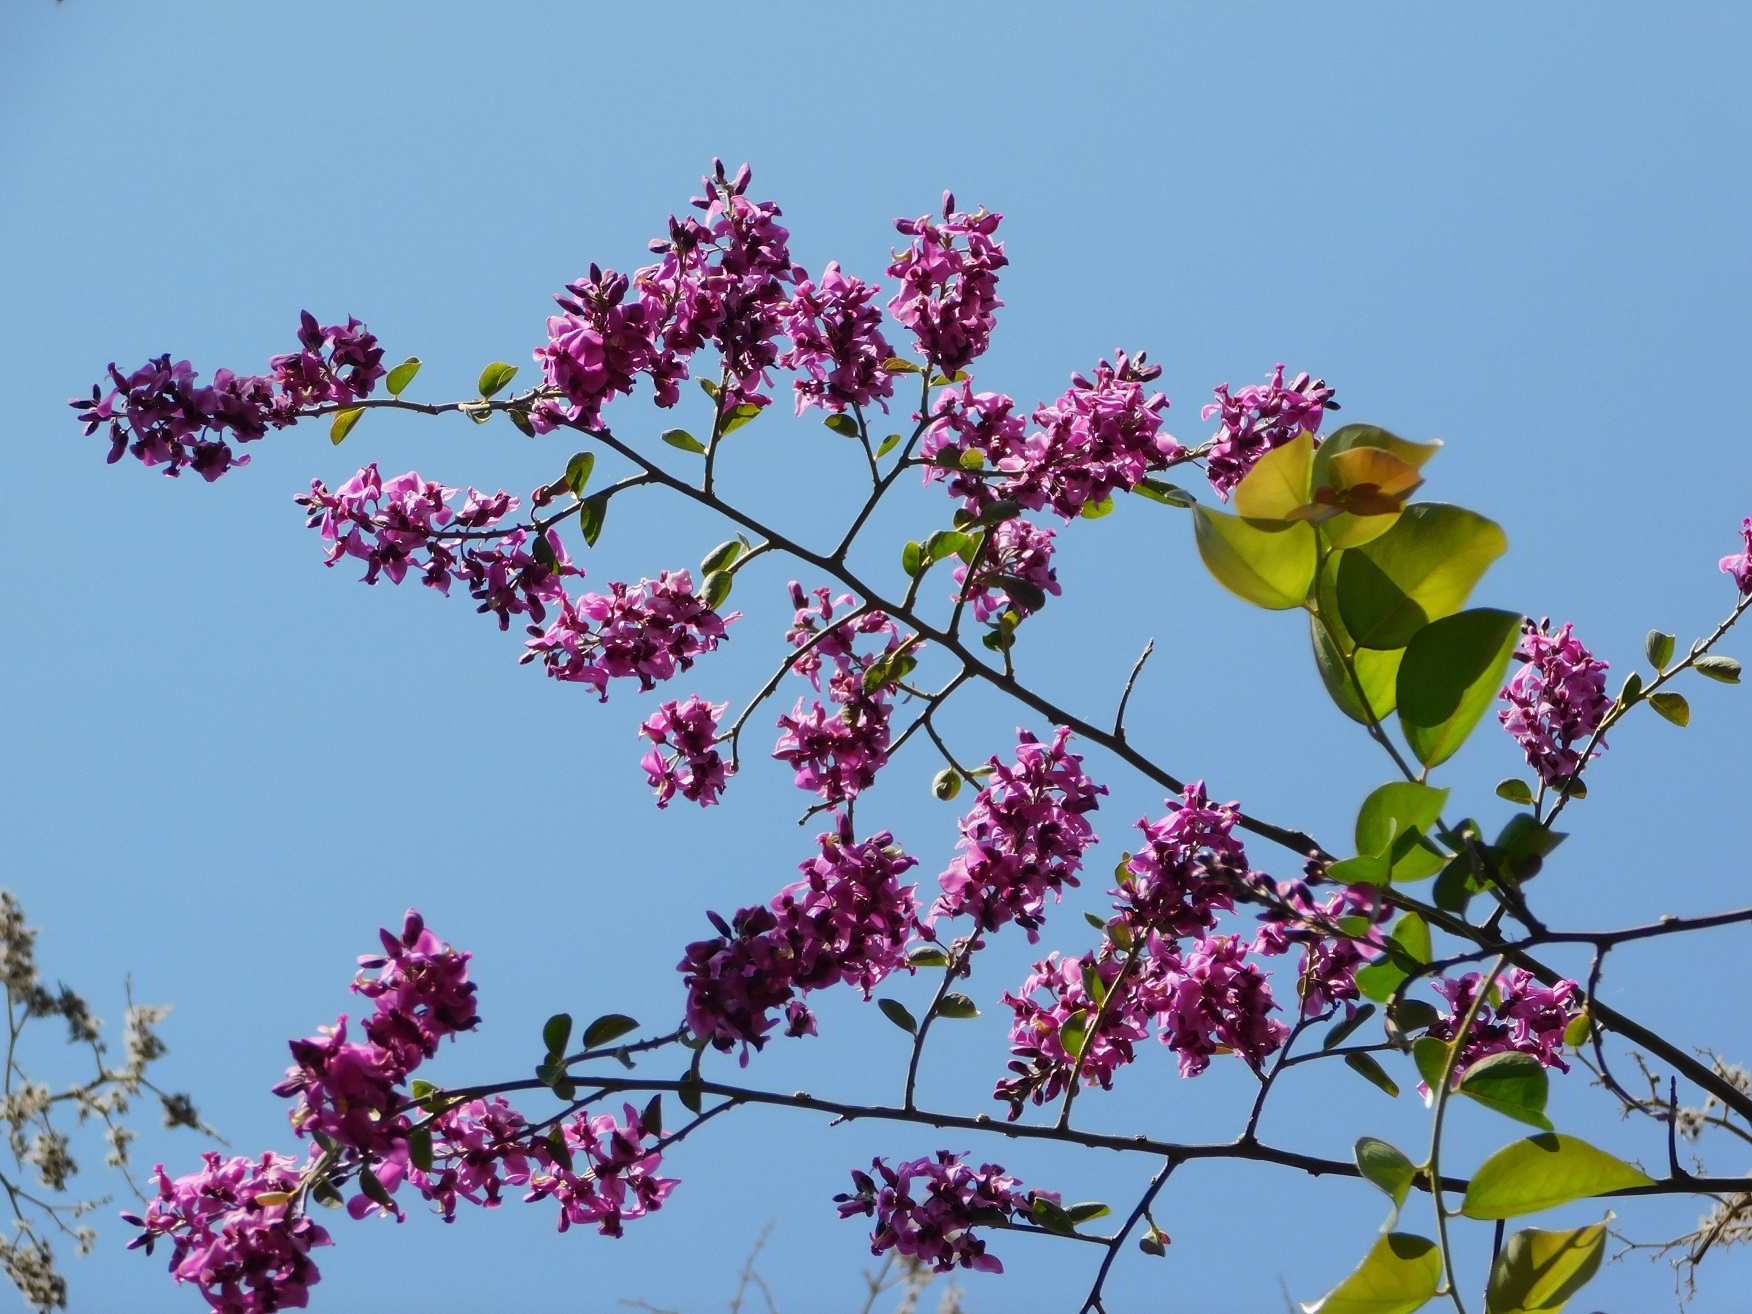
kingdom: Plantae
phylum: Tracheophyta
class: Magnoliopsida
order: Fabales
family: Polygalaceae
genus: Asemeia
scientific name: Asemeia floribunda
